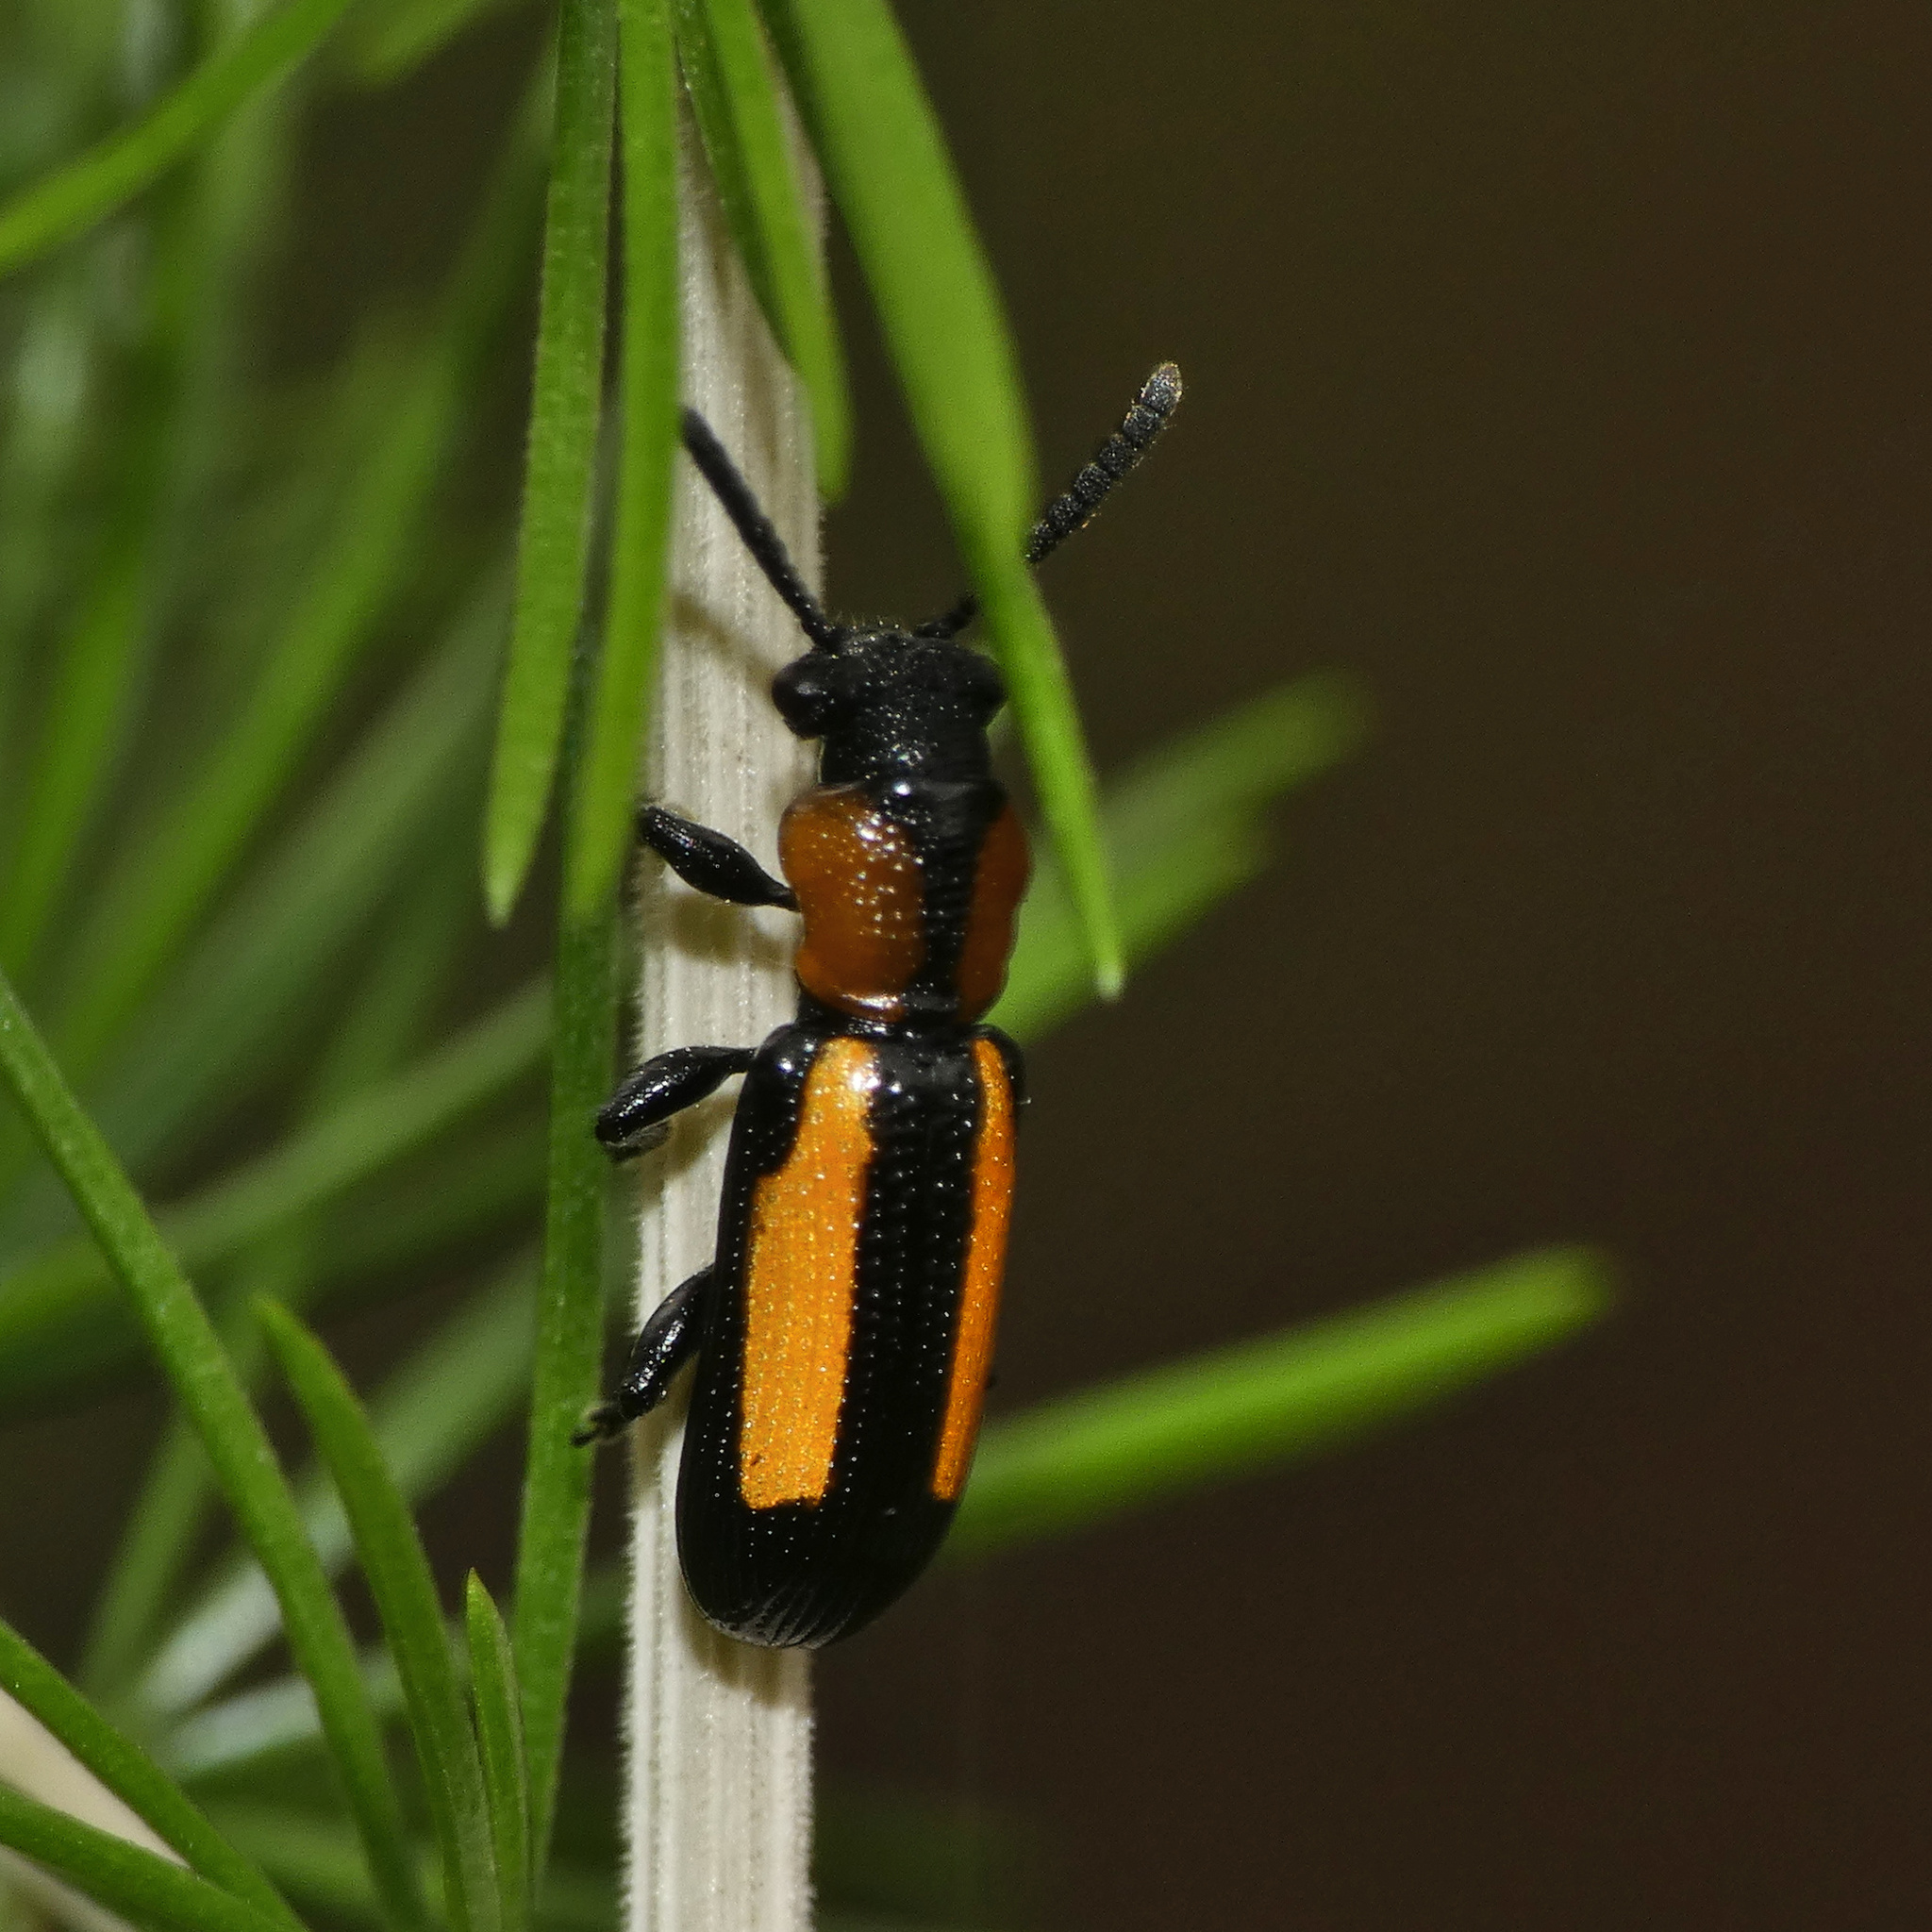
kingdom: Animalia
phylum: Arthropoda
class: Insecta
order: Coleoptera
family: Chrysomelidae
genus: Sigrisma
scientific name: Sigrisma
